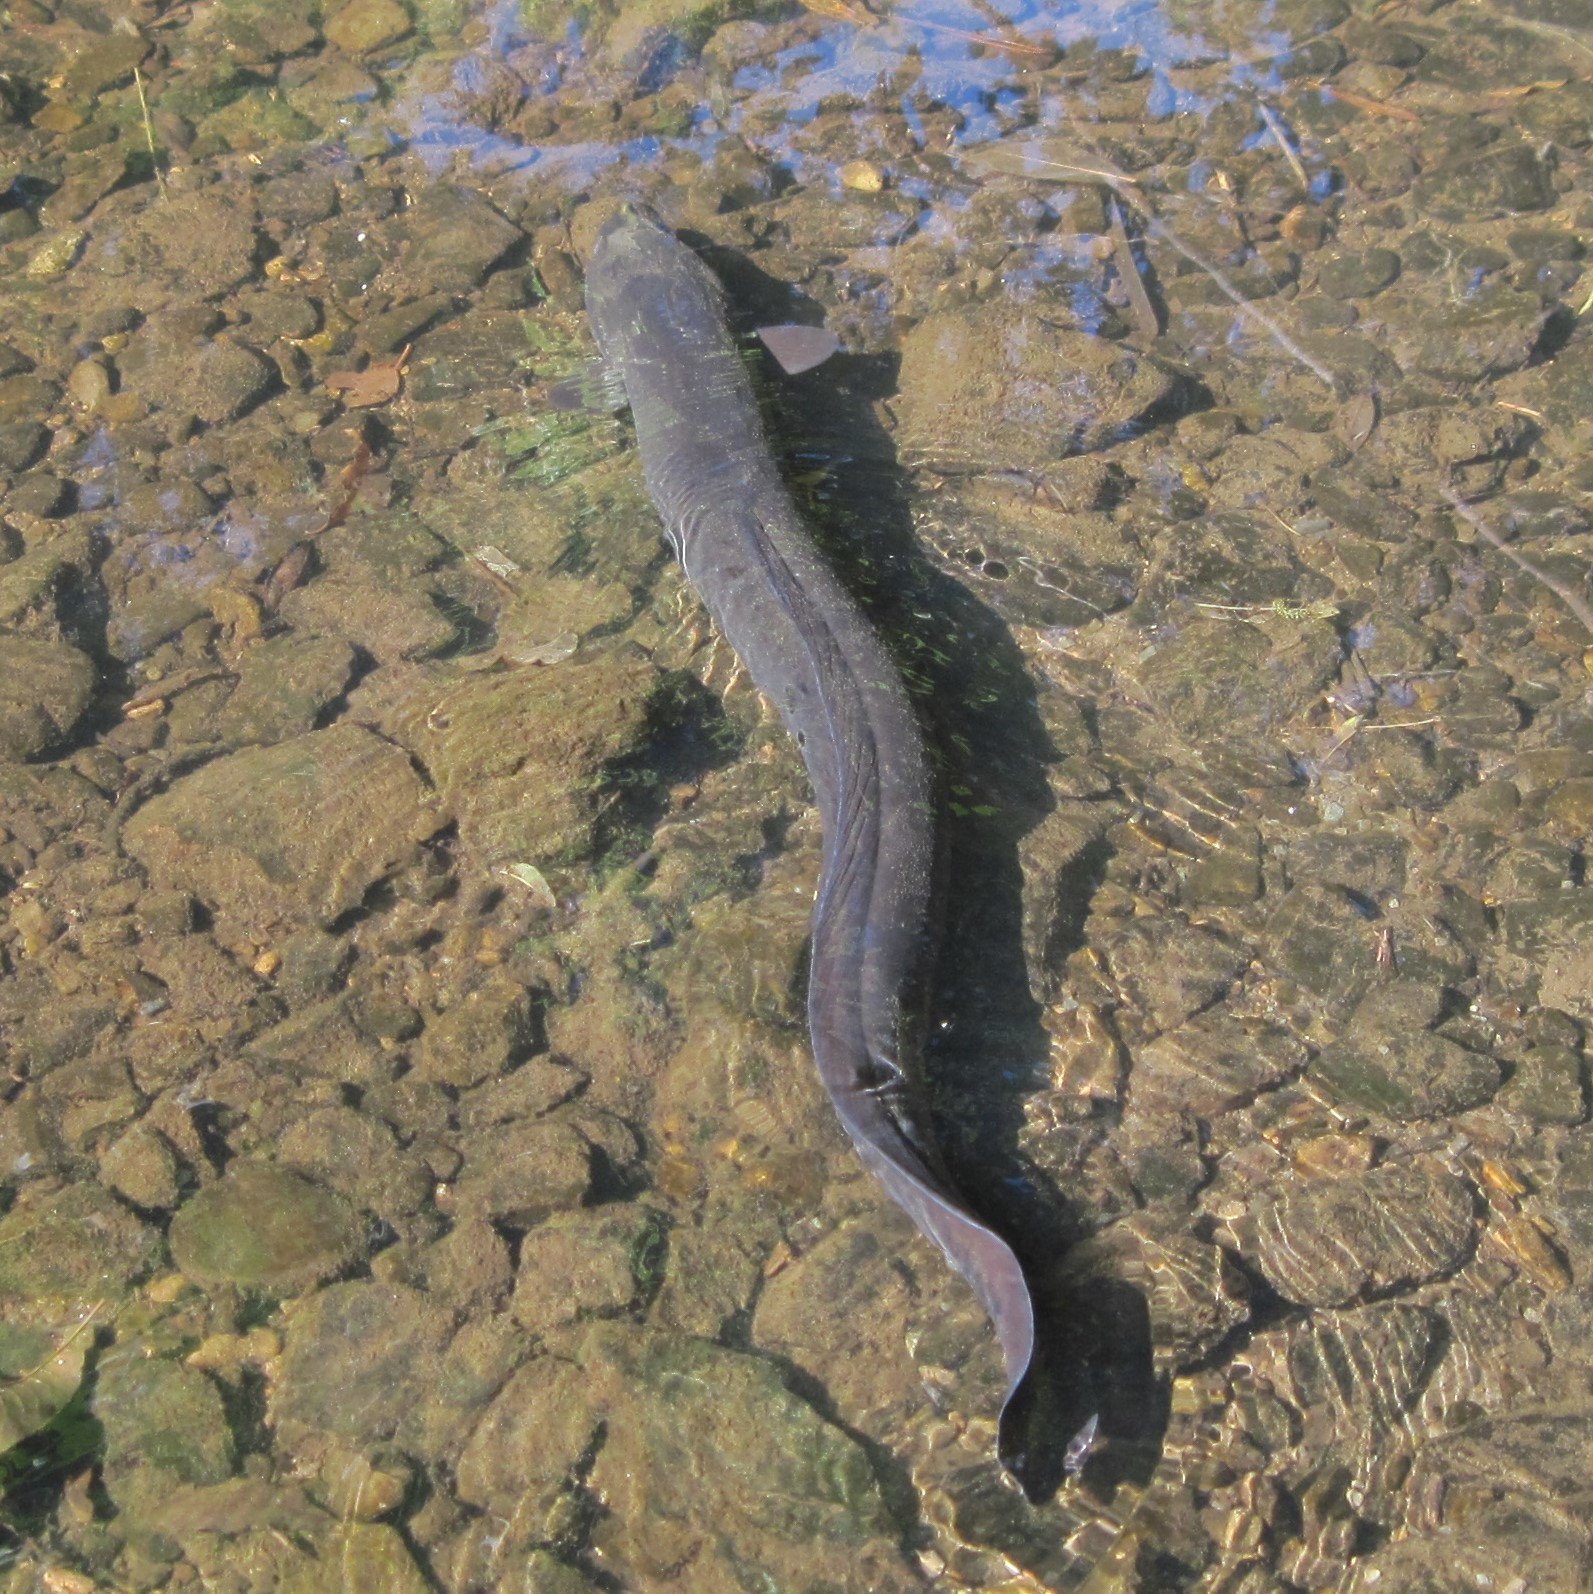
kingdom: Animalia
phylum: Chordata
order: Anguilliformes
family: Anguillidae
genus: Anguilla
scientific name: Anguilla dieffenbachii
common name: New zealand longfin eel
